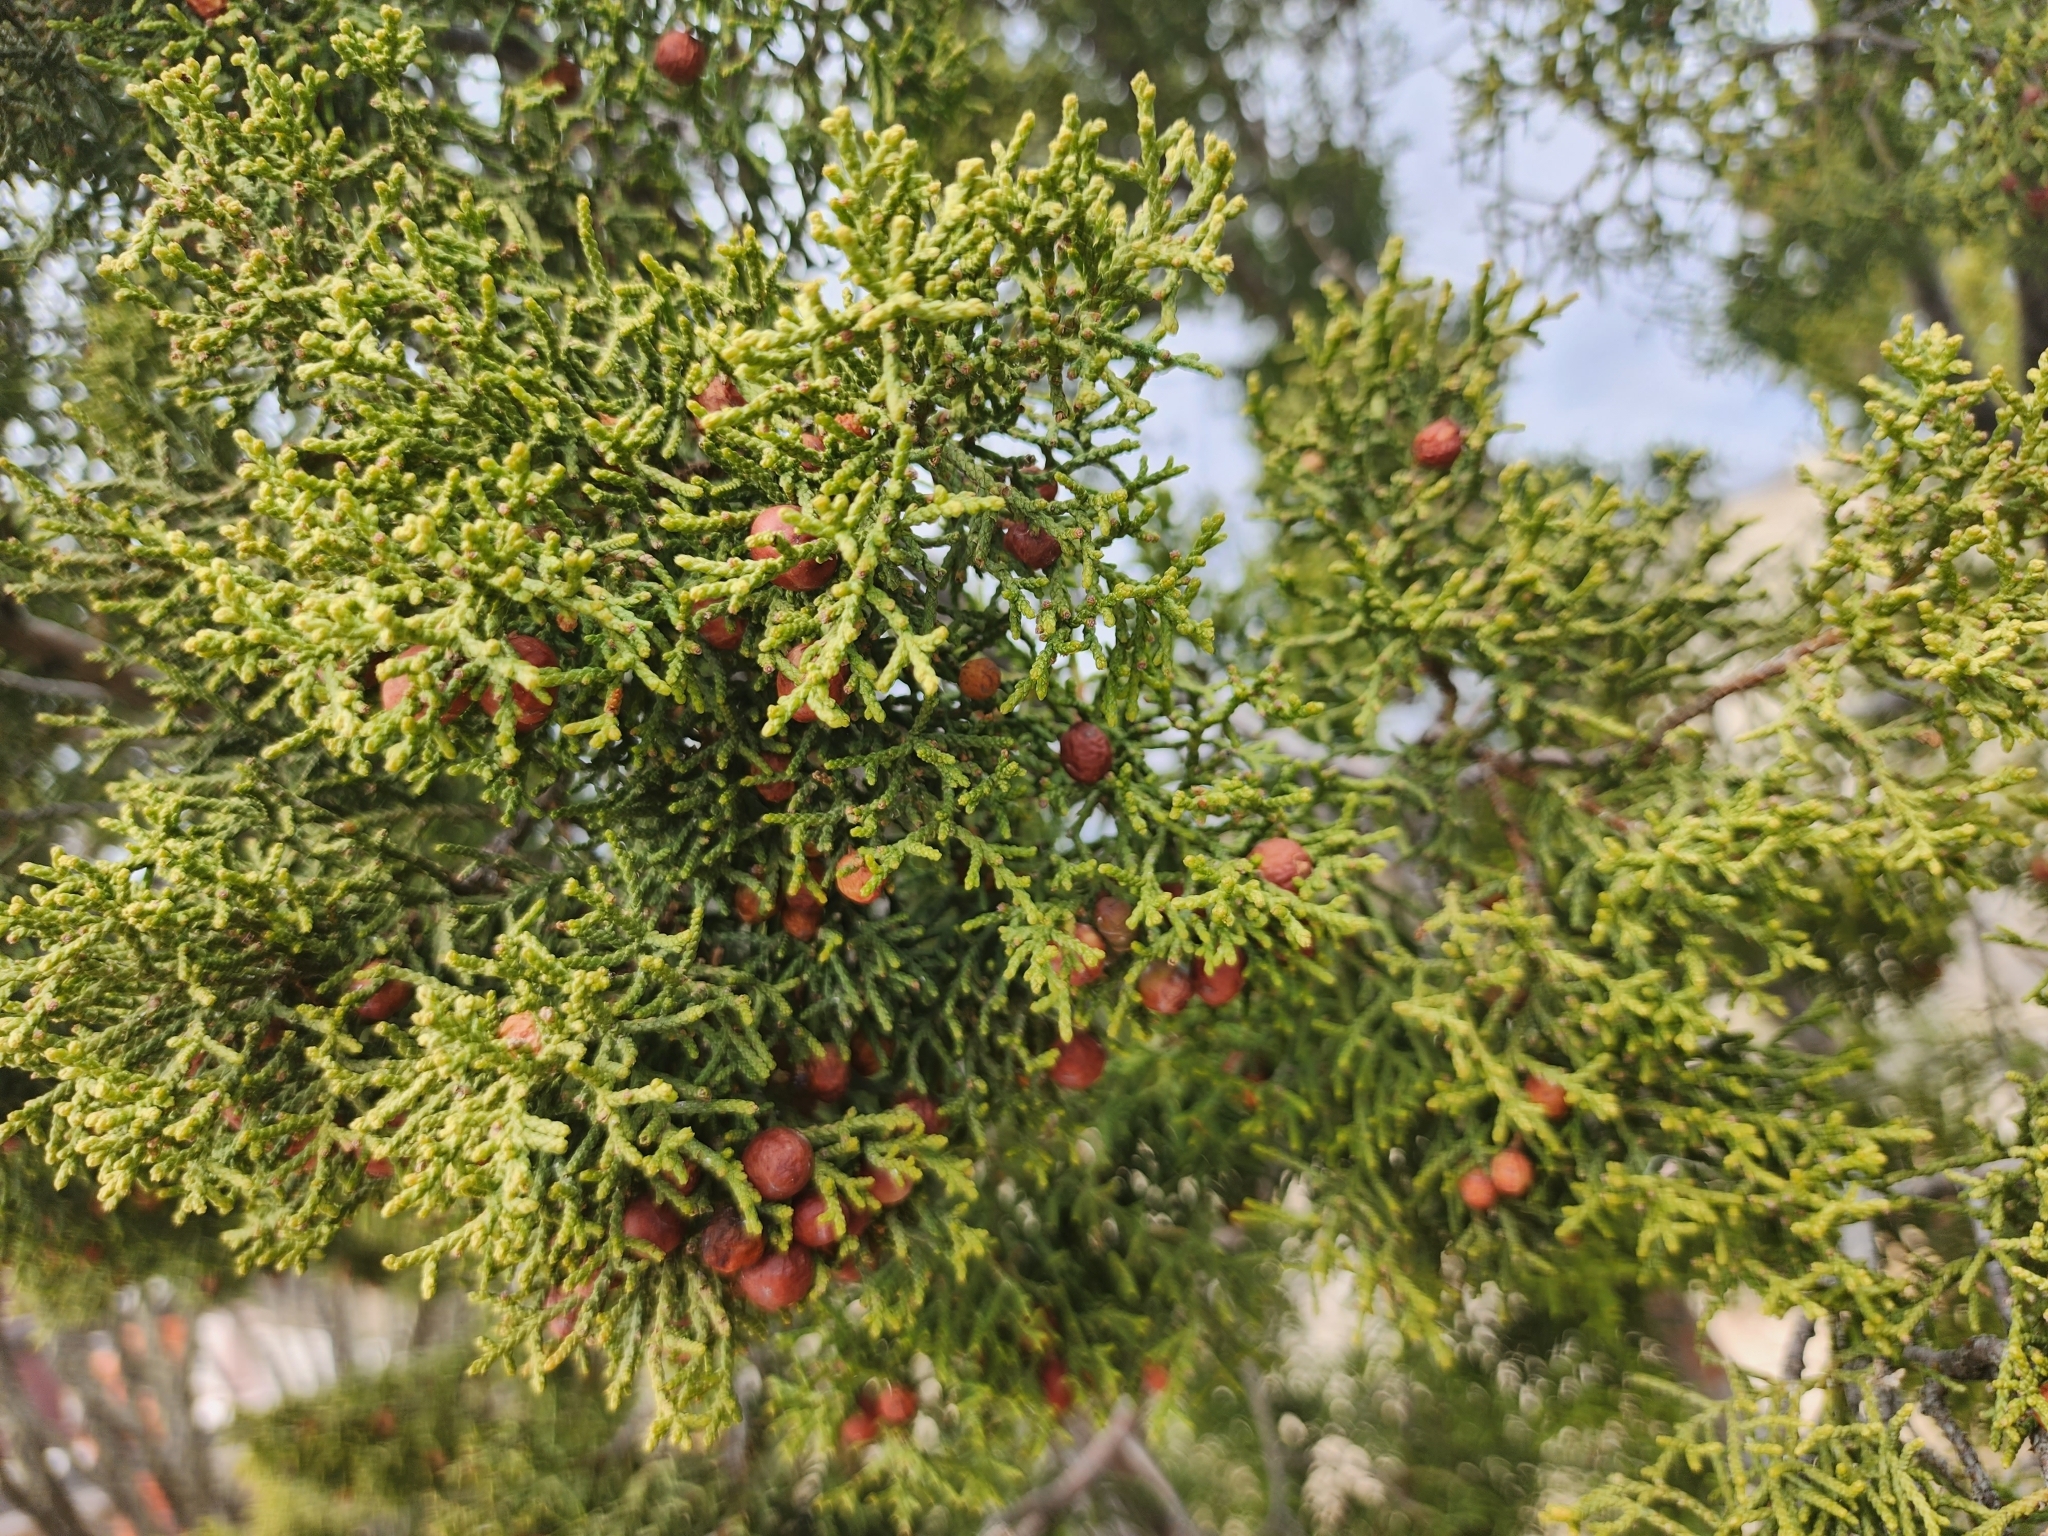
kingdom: Plantae
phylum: Tracheophyta
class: Pinopsida
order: Pinales
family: Cupressaceae
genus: Juniperus
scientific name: Juniperus pinchotii
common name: Pinchot juniper
